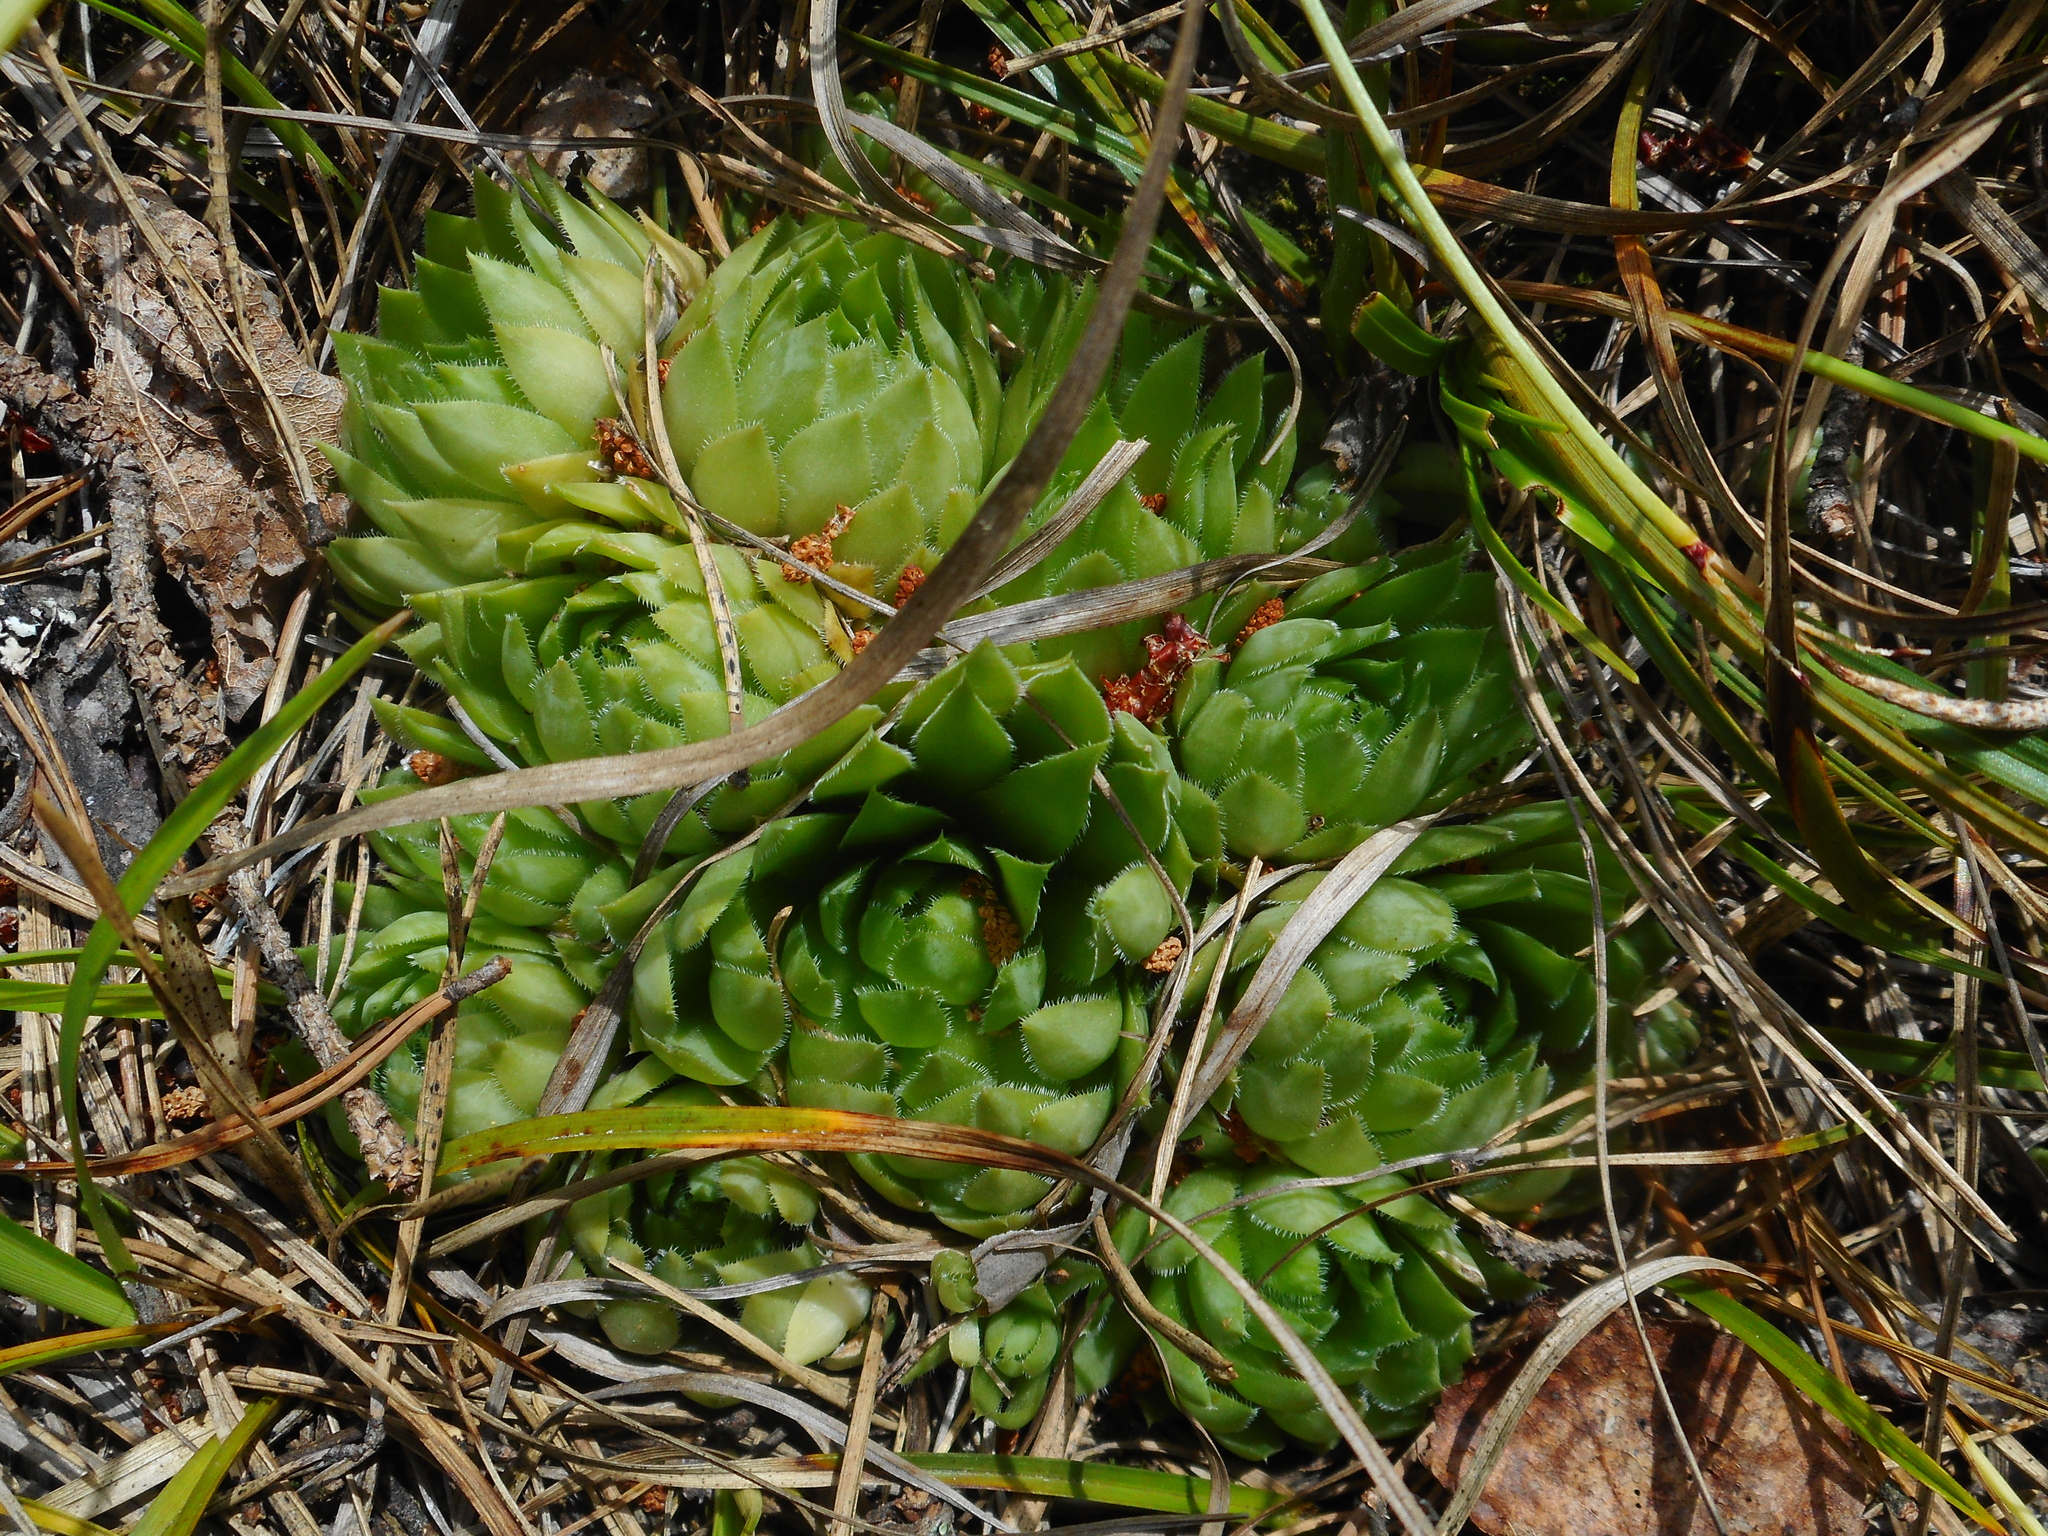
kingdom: Plantae
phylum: Tracheophyta
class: Magnoliopsida
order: Saxifragales
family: Crassulaceae
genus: Sempervivum
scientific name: Sempervivum globiferum
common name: Rolling hen-and-chicks
